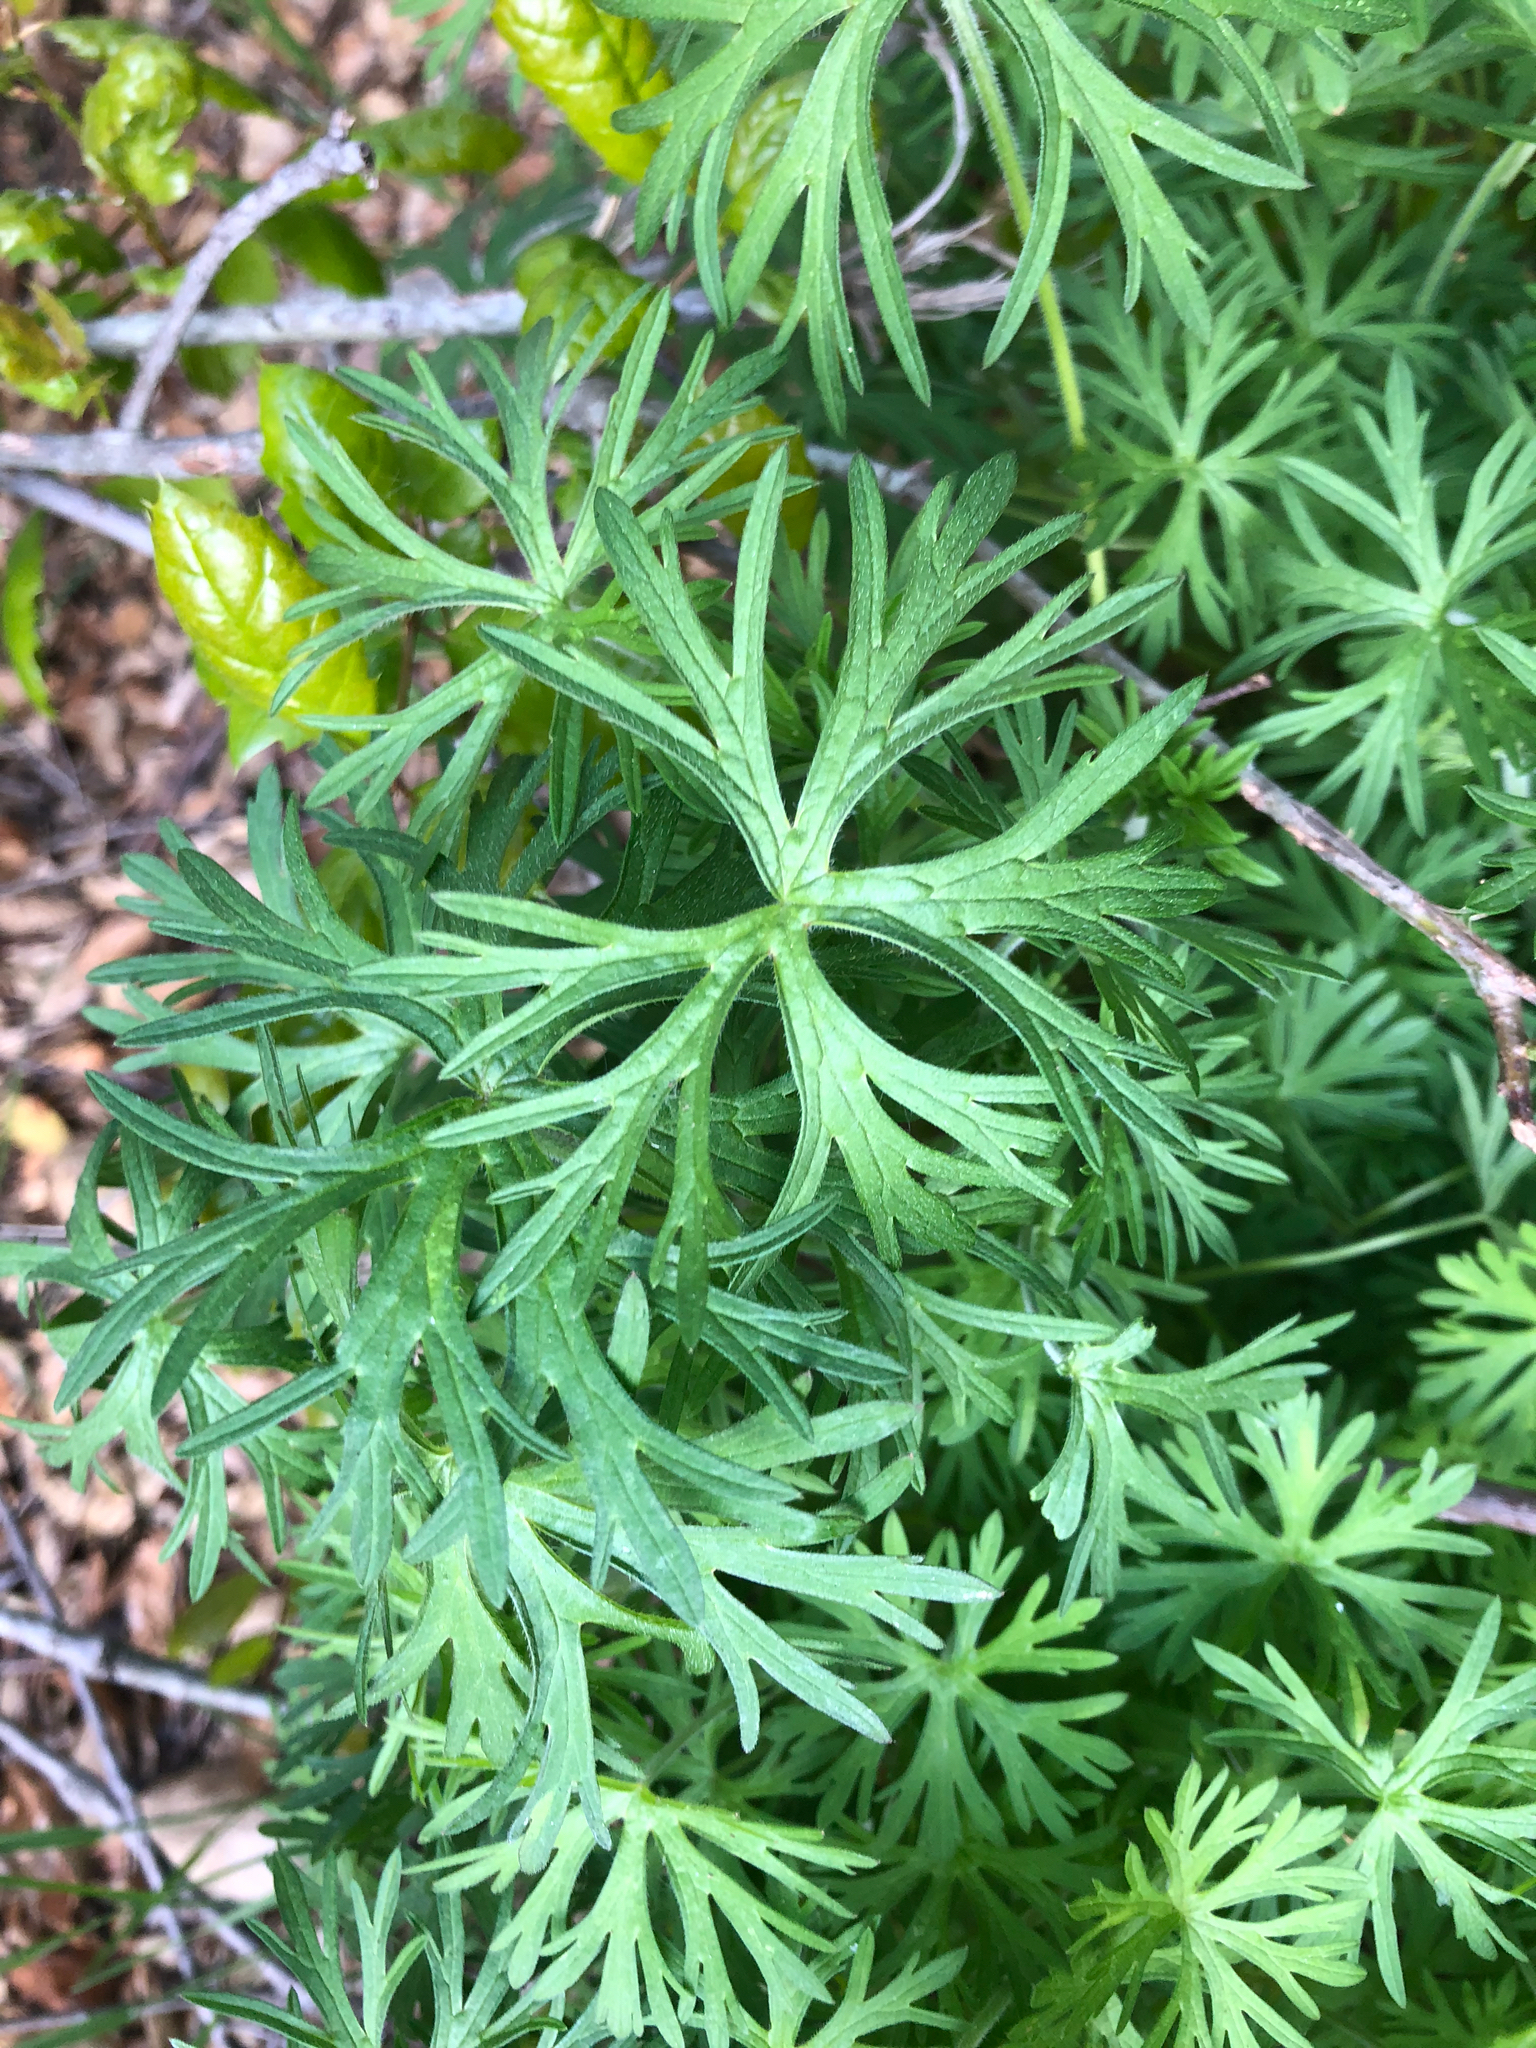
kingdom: Plantae
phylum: Tracheophyta
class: Magnoliopsida
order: Geraniales
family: Geraniaceae
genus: Geranium
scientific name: Geranium
